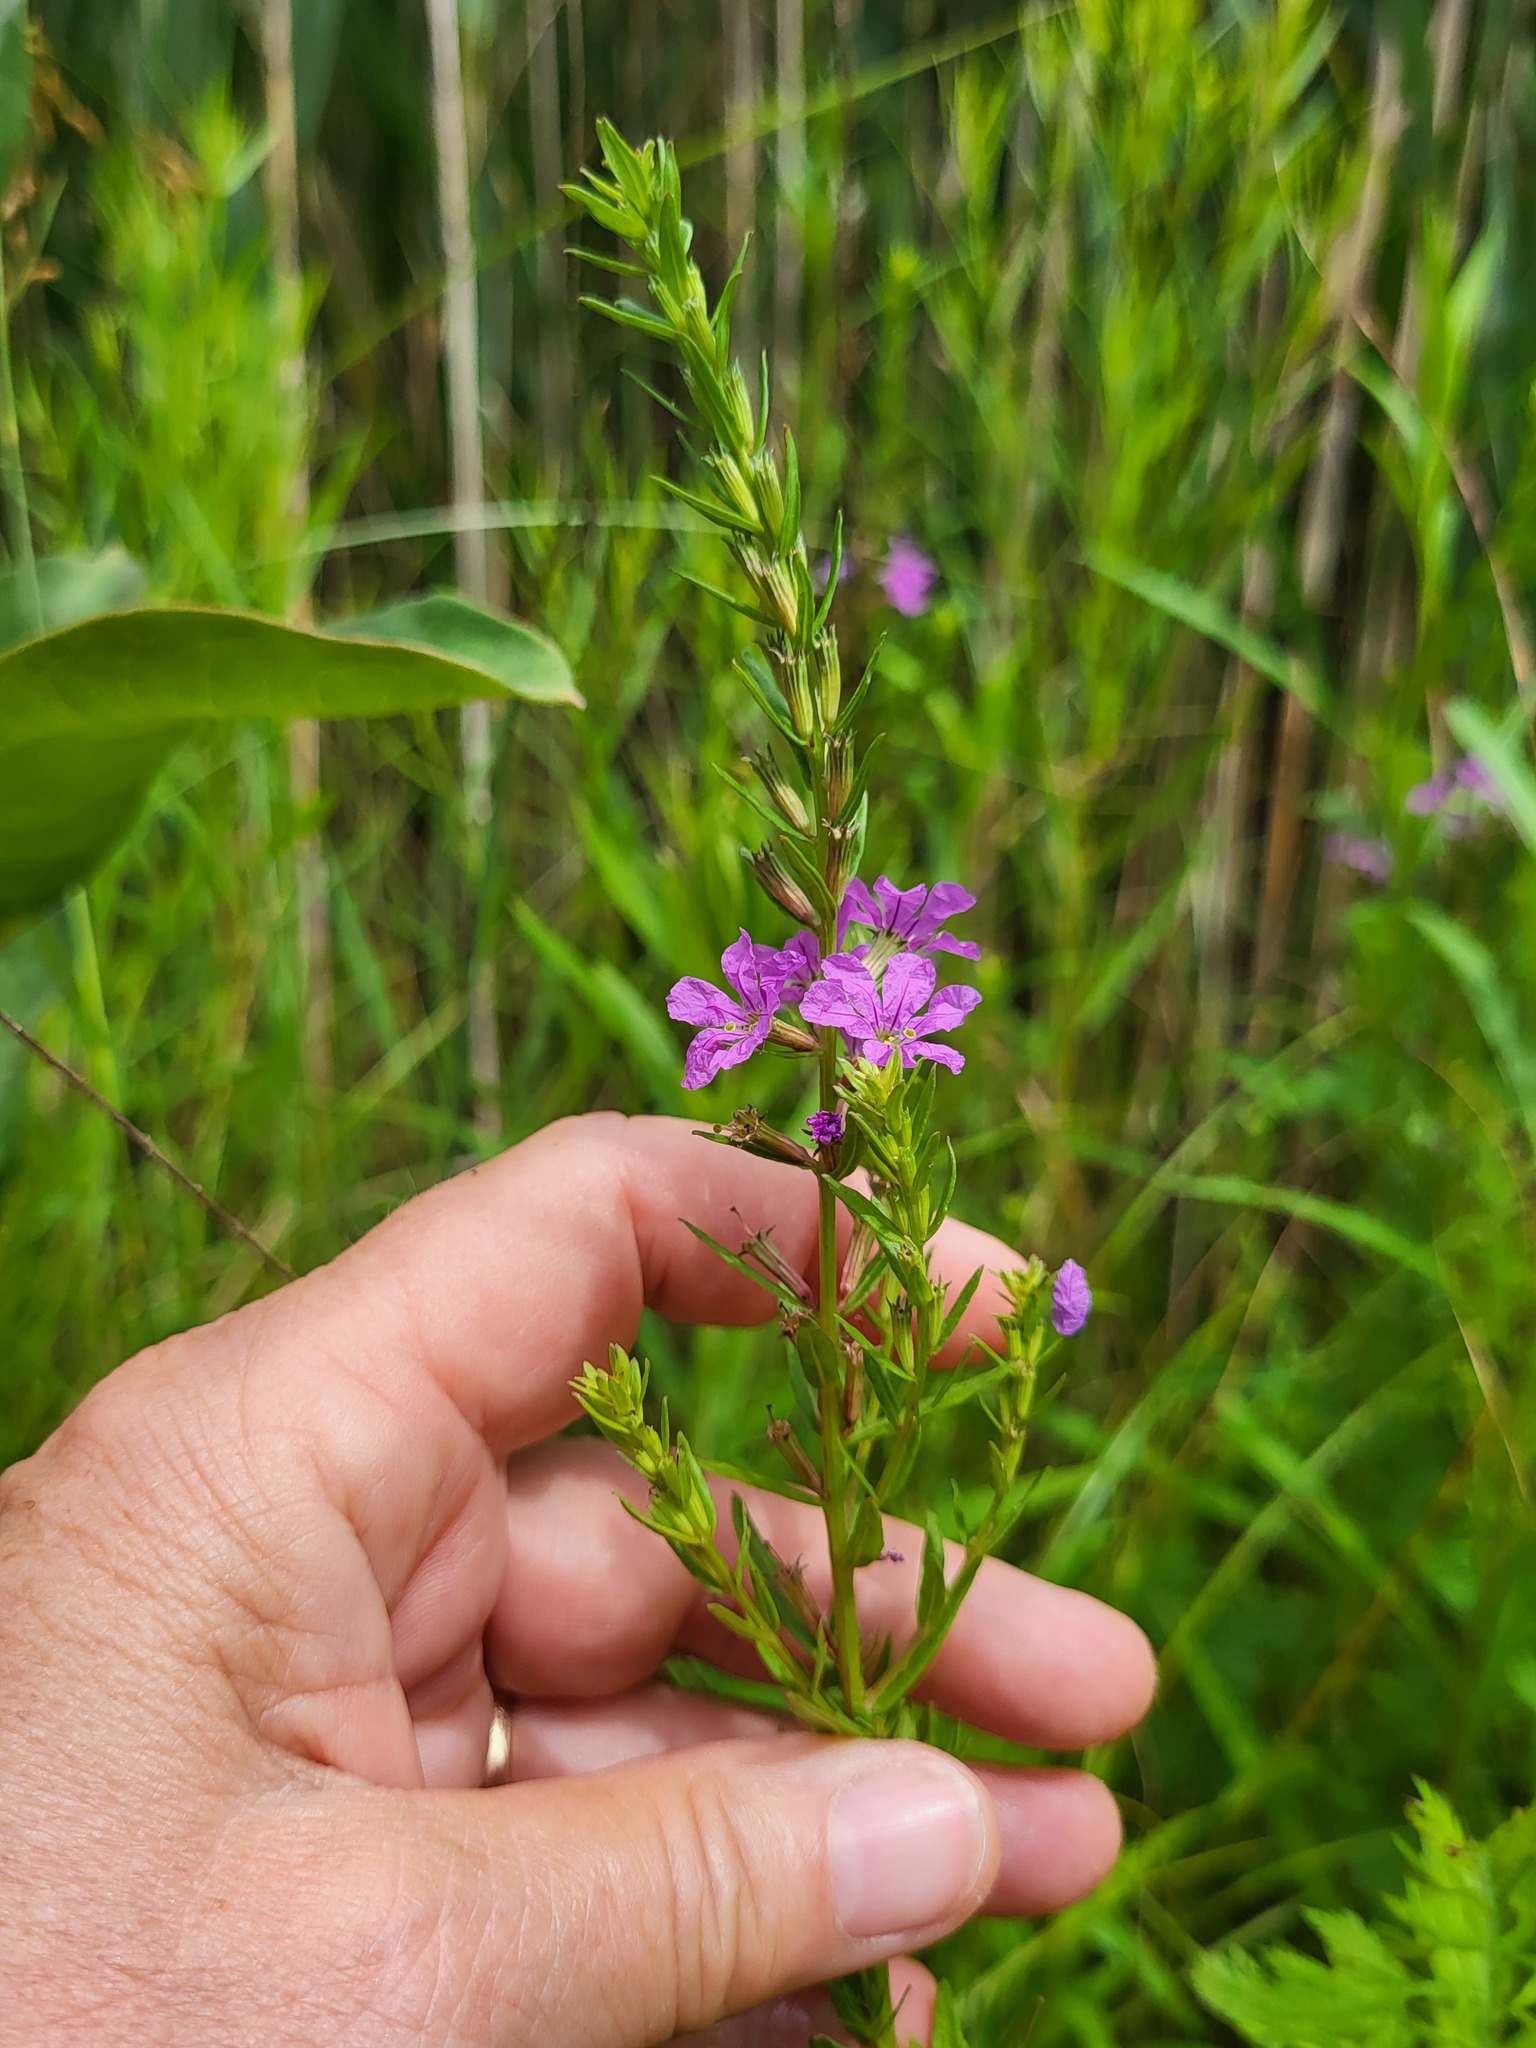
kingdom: Plantae
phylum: Tracheophyta
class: Magnoliopsida
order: Myrtales
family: Lythraceae
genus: Lythrum
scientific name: Lythrum alatum
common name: Winged loosestrife
